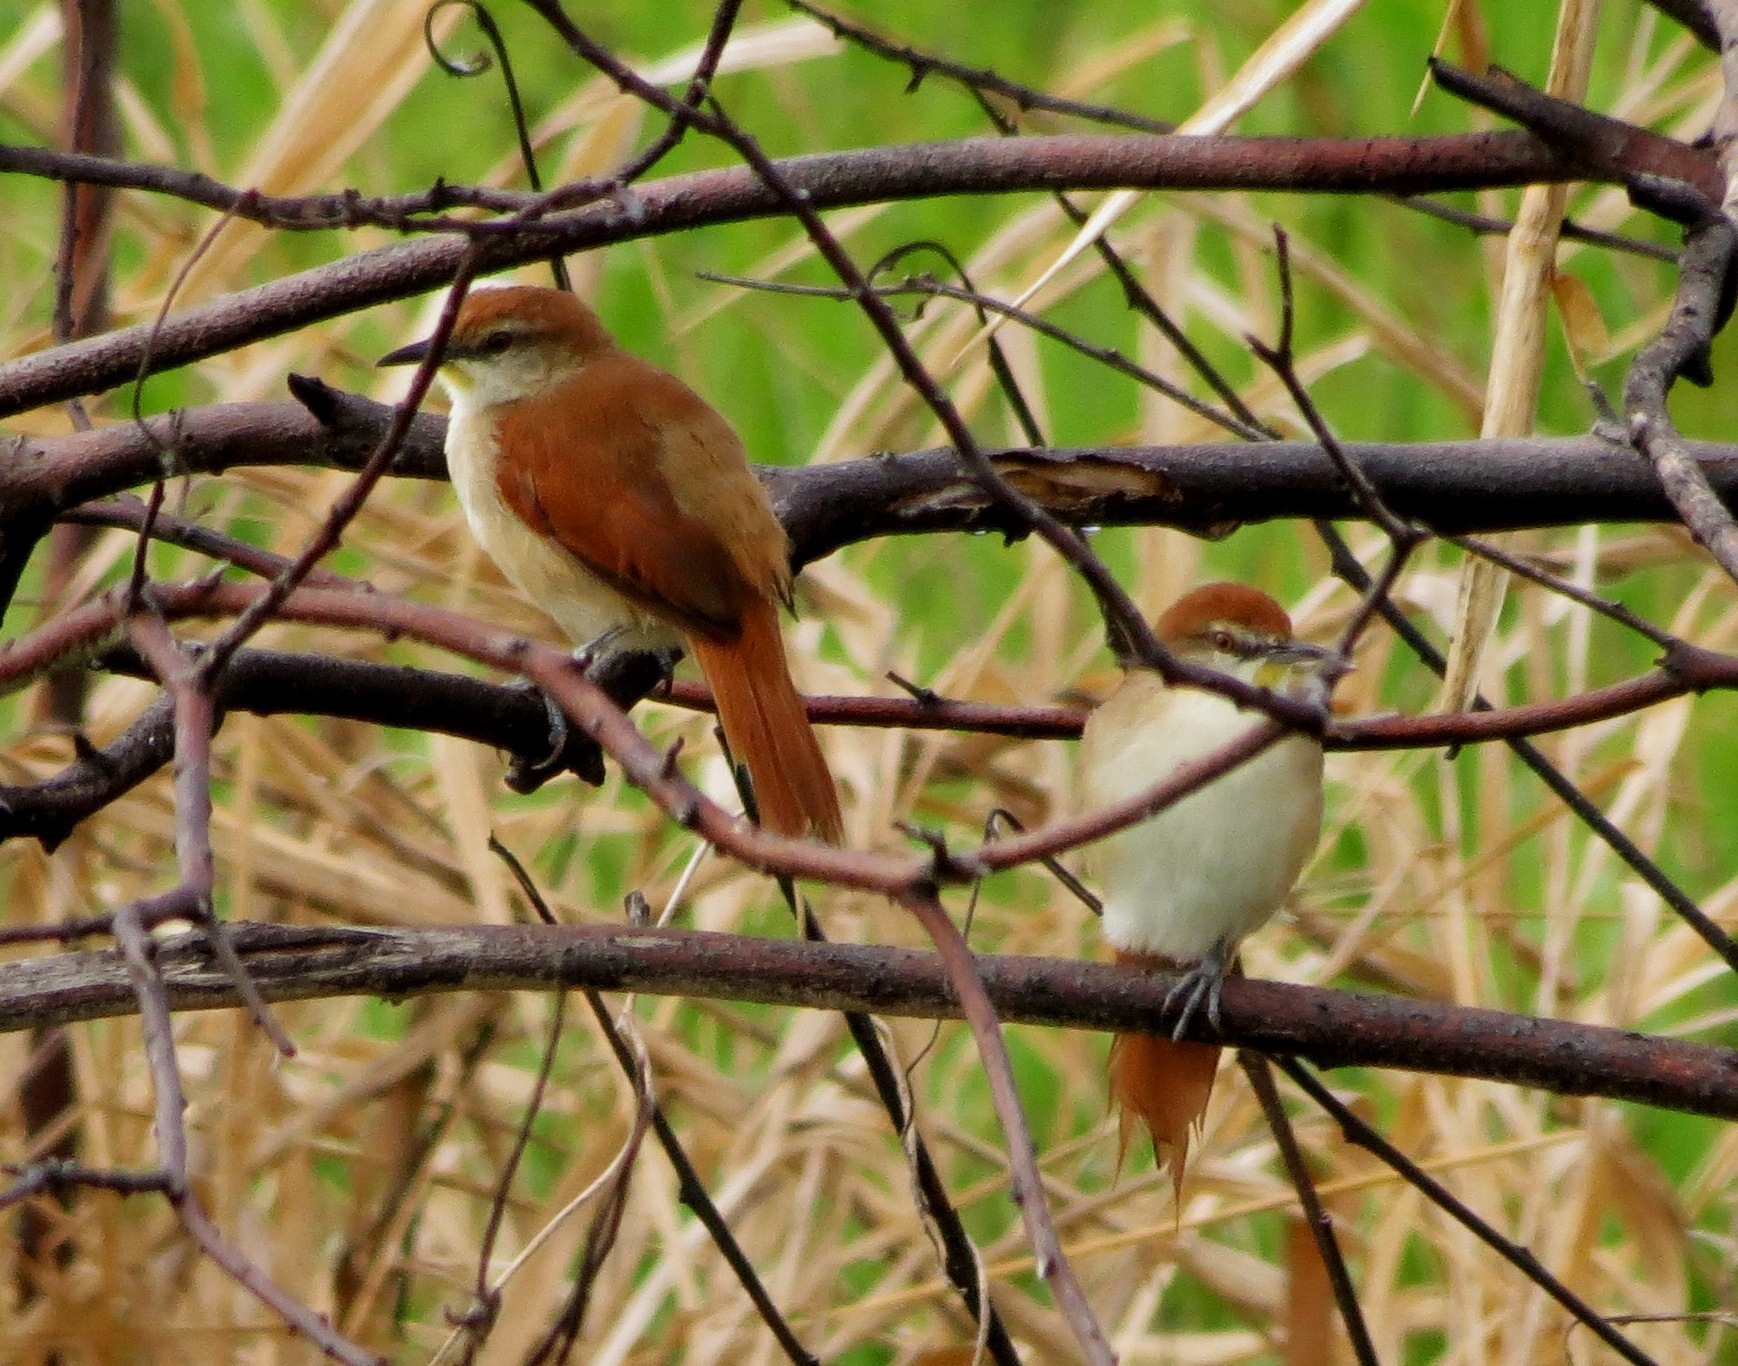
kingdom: Animalia
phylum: Chordata
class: Aves
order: Passeriformes
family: Furnariidae
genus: Certhiaxis
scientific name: Certhiaxis cinnamomeus
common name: Yellow-chinned spinetail
